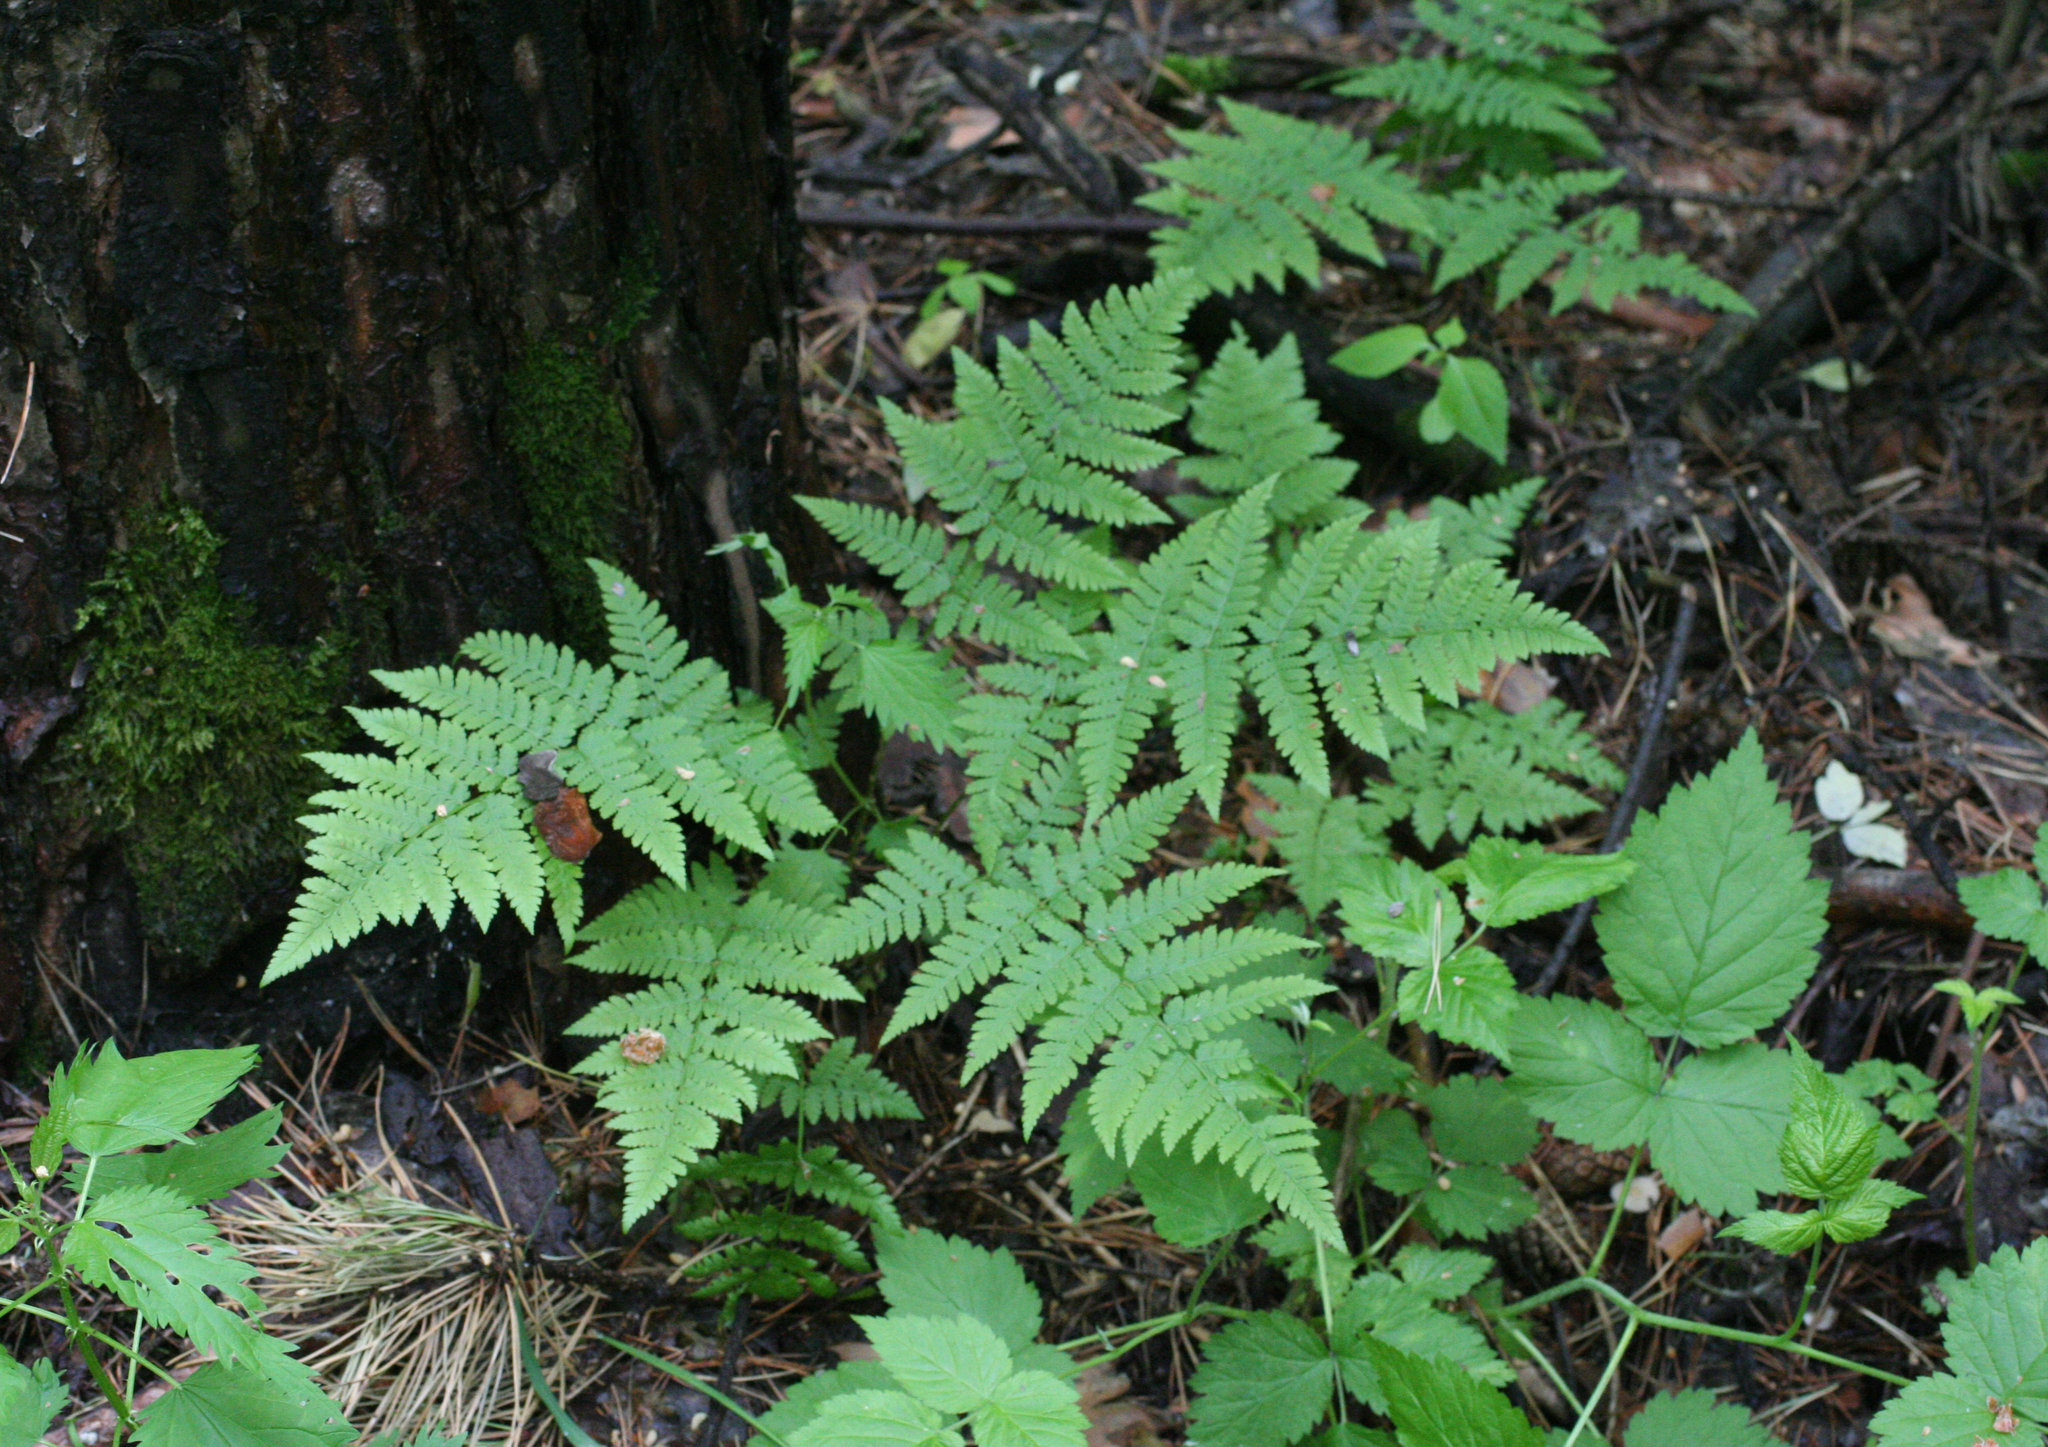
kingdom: Plantae
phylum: Tracheophyta
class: Polypodiopsida
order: Polypodiales
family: Dryopteridaceae
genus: Dryopteris
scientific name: Dryopteris carthusiana
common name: Narrow buckler-fern
